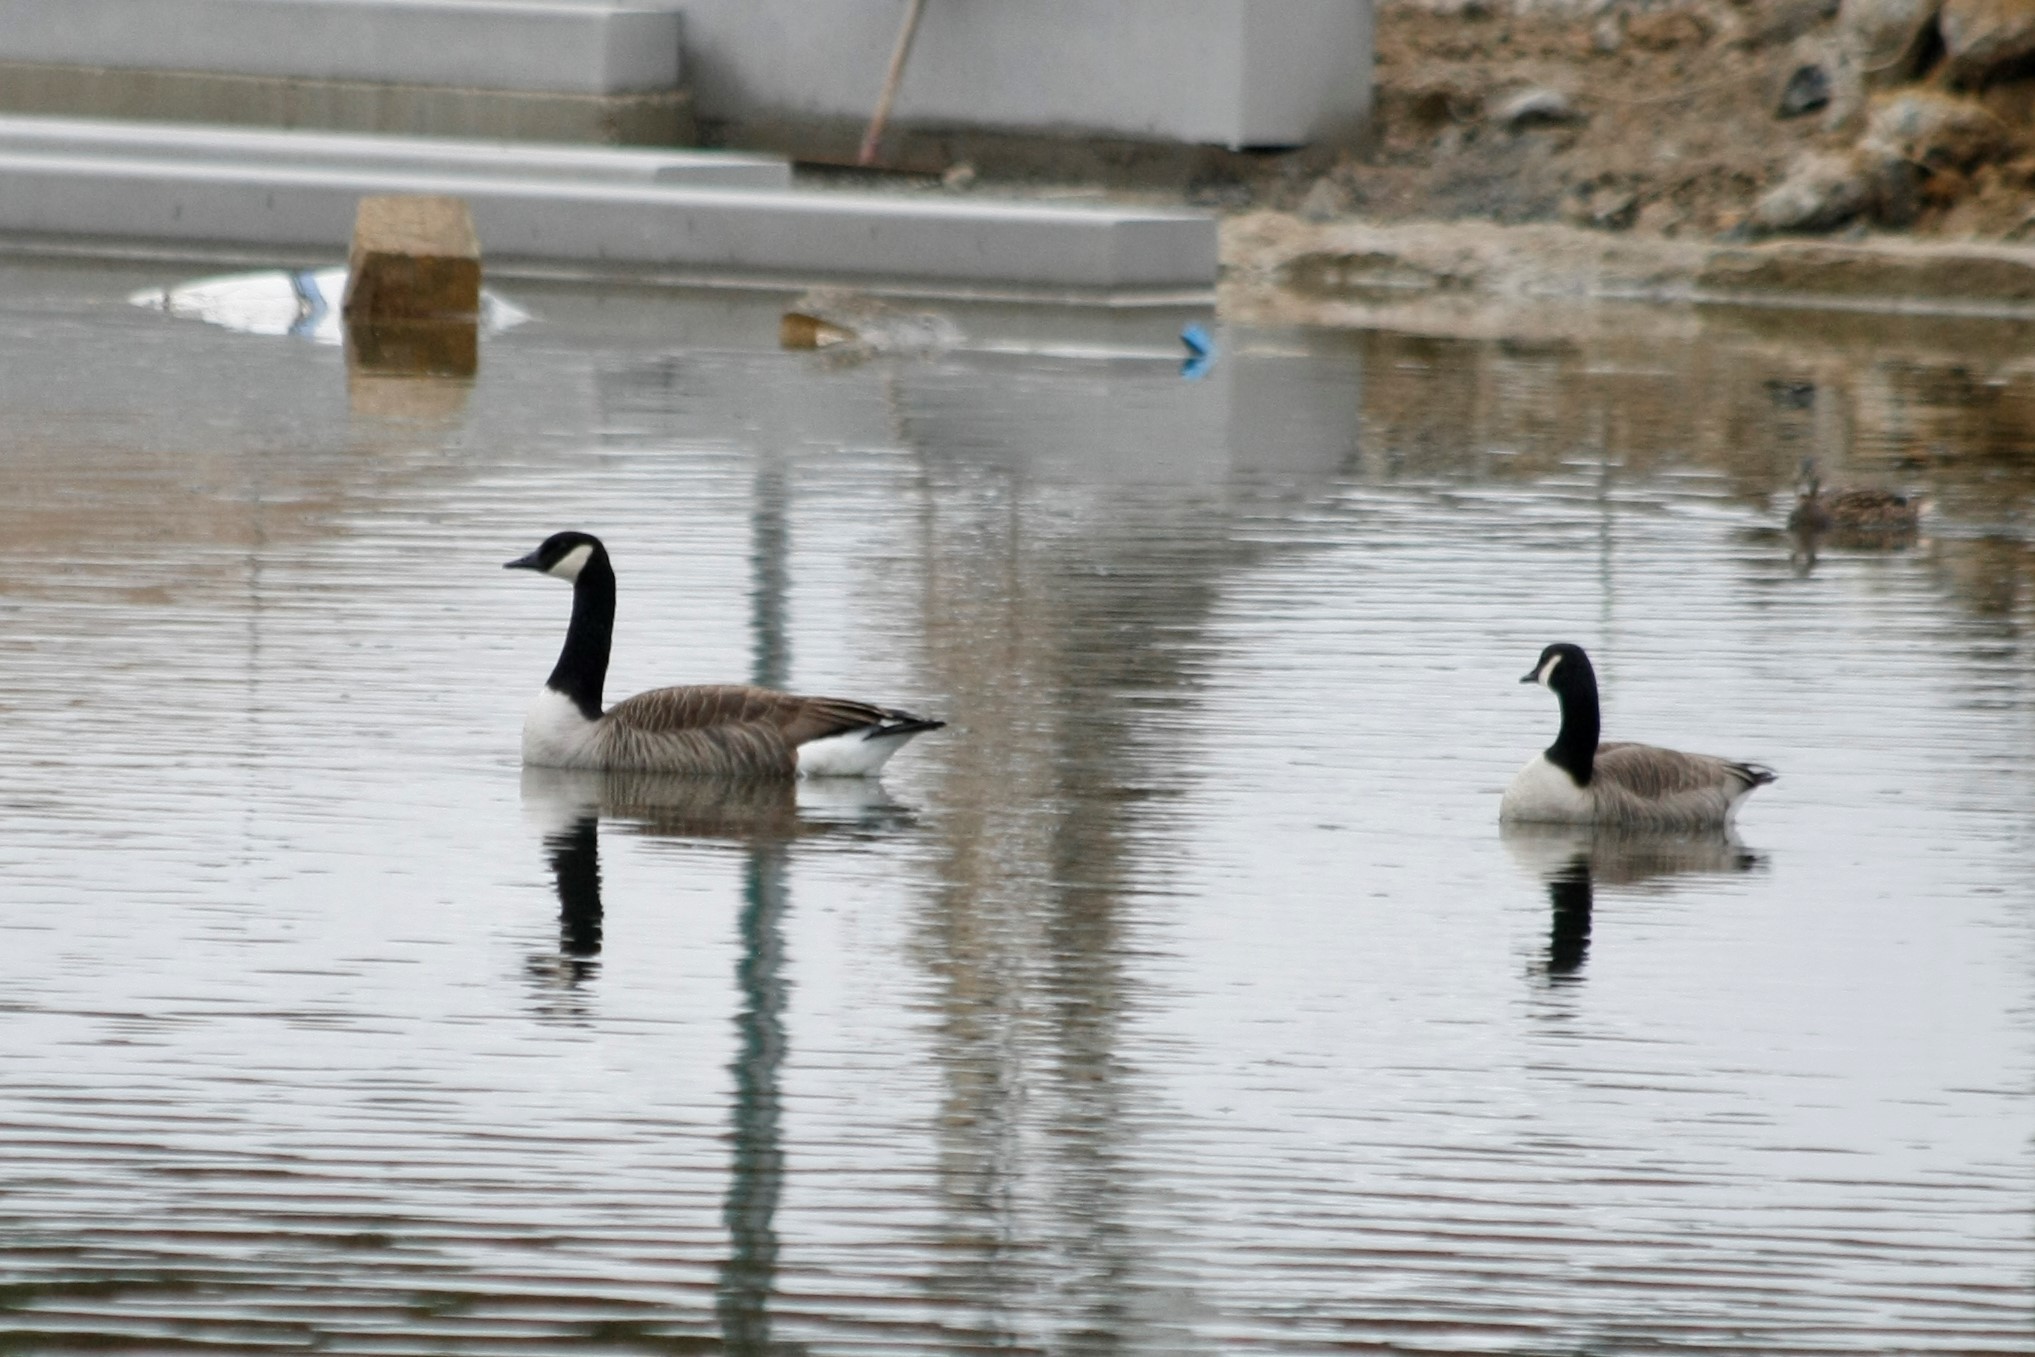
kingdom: Animalia
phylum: Chordata
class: Aves
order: Anseriformes
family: Anatidae
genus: Branta
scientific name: Branta canadensis
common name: Canada goose
